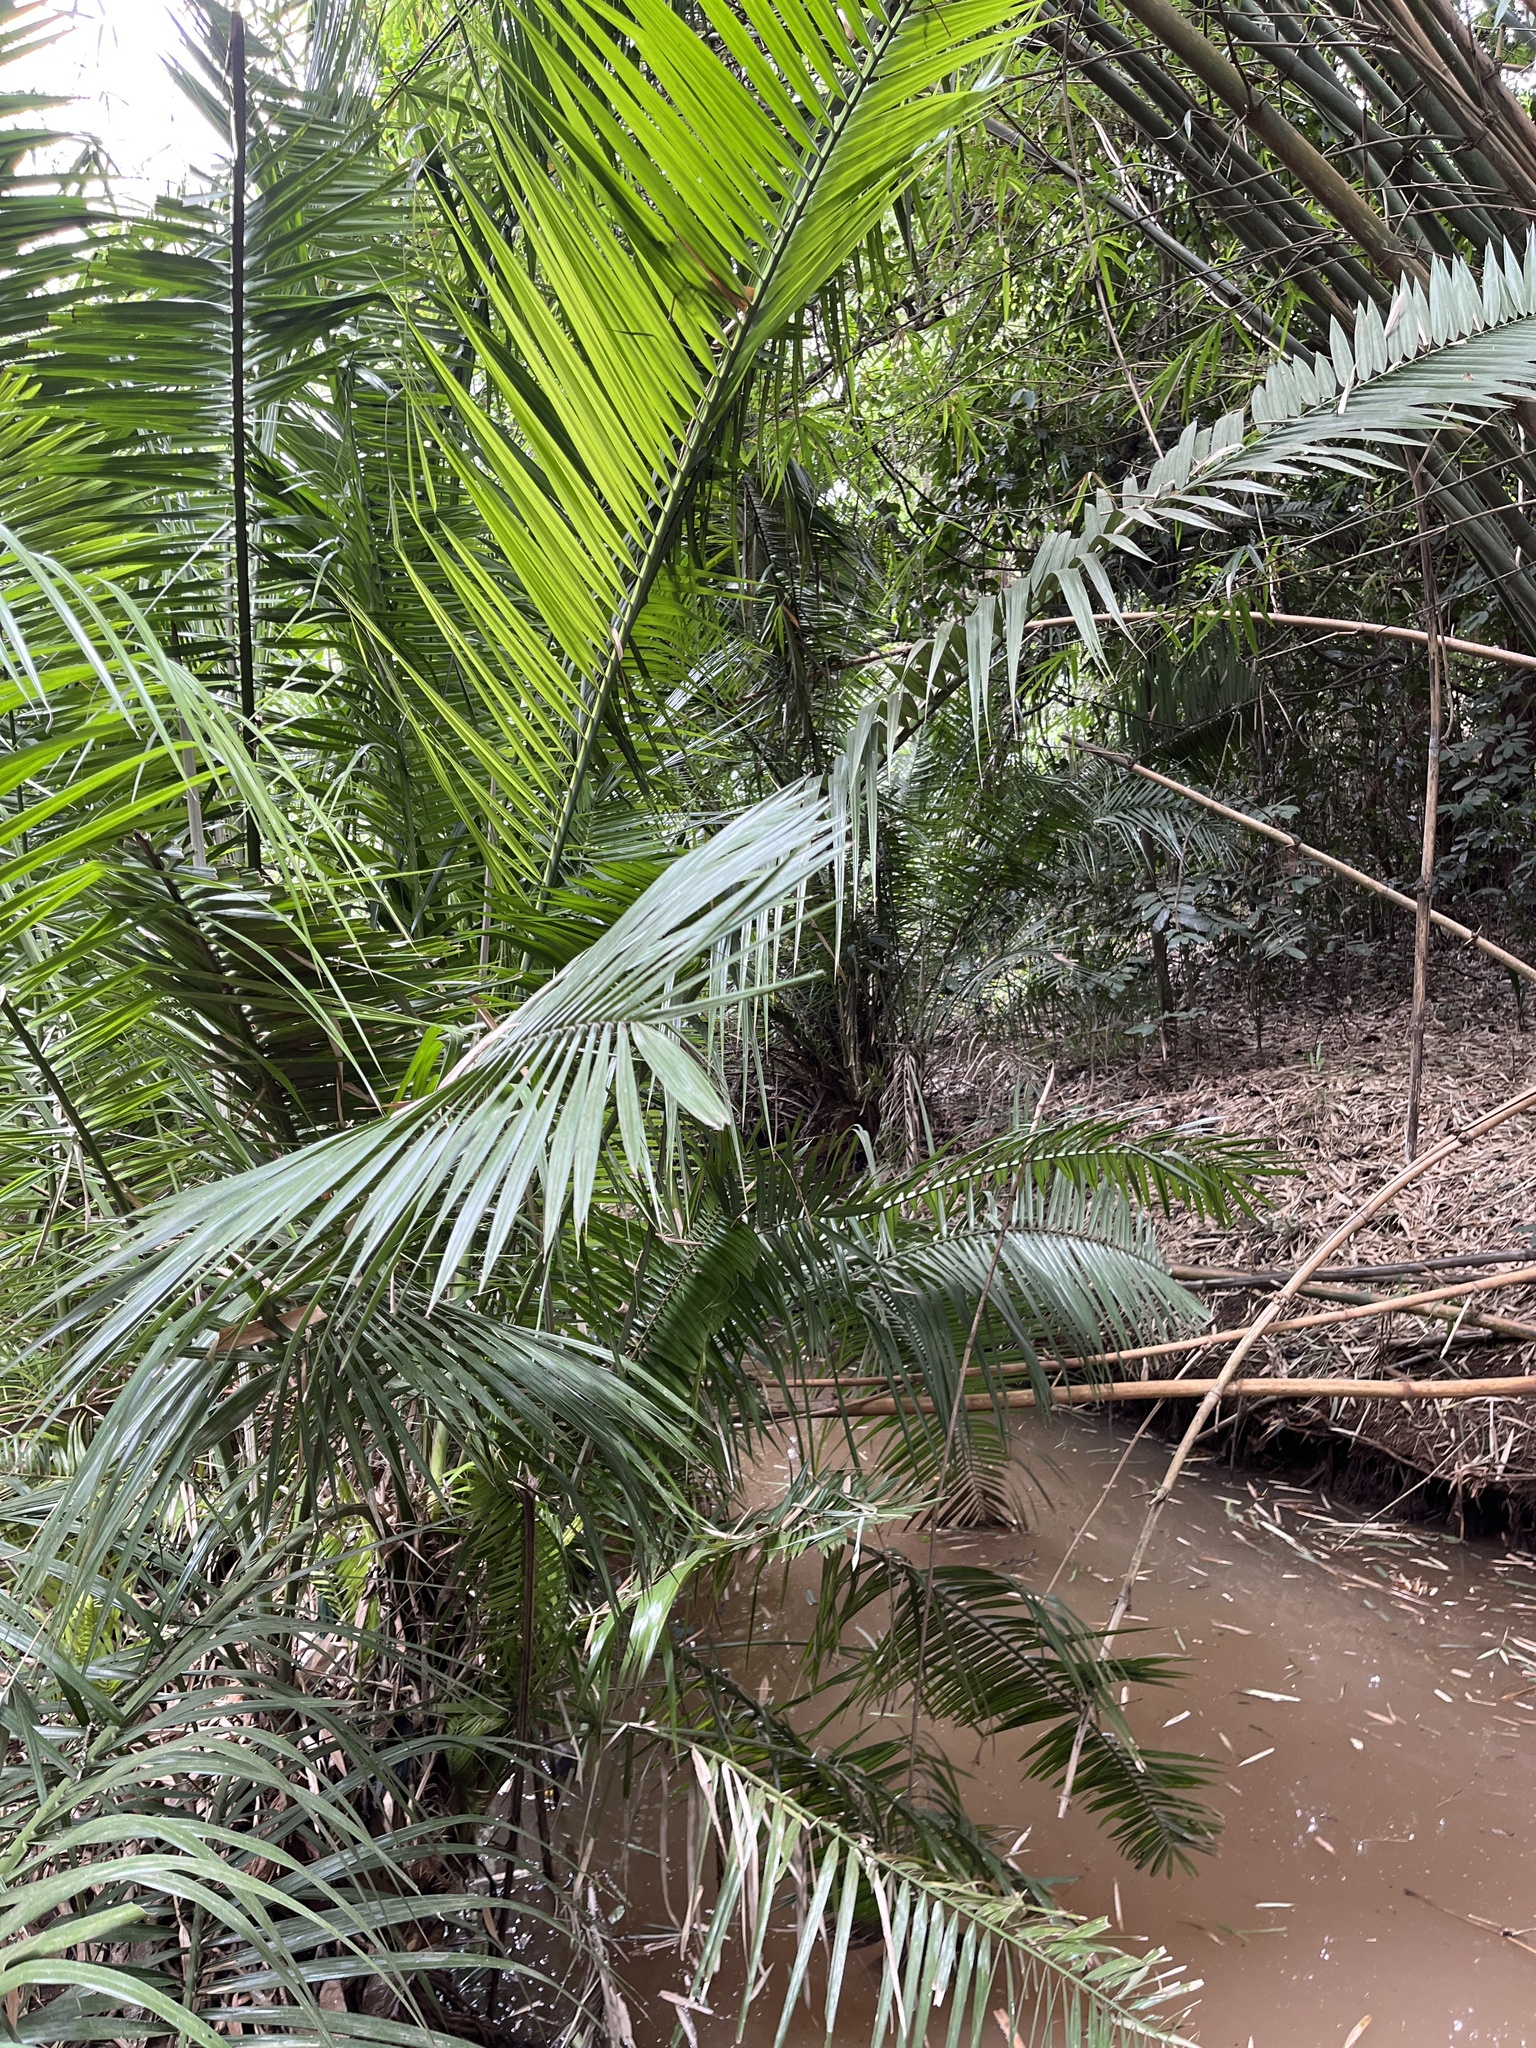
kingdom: Plantae
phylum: Tracheophyta
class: Liliopsida
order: Arecales
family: Arecaceae
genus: Phoenix
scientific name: Phoenix reclinata
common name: Senegal date palm
